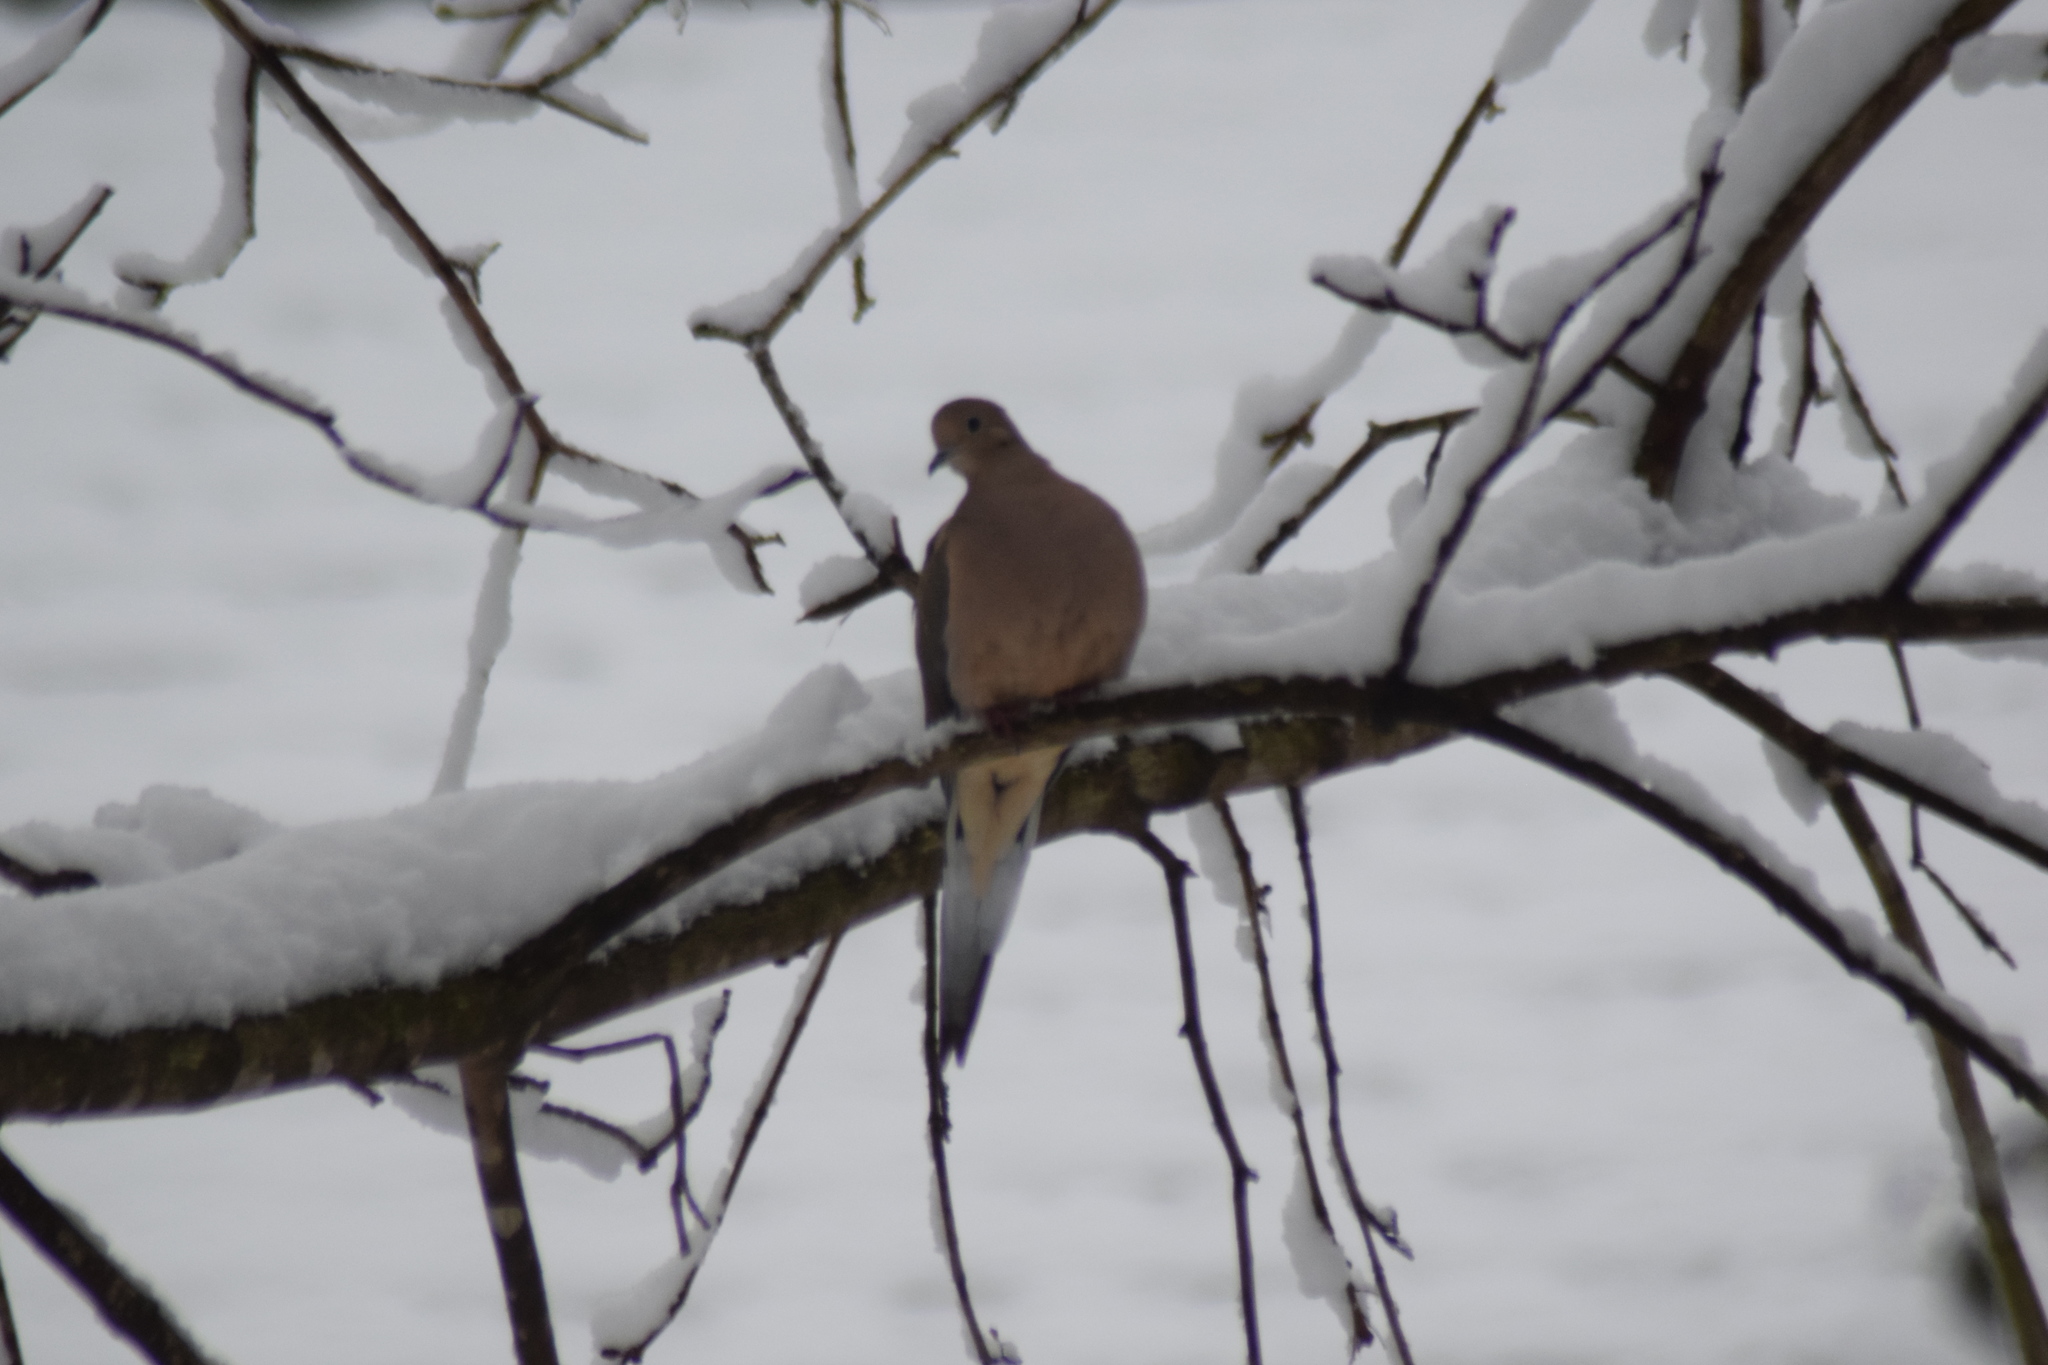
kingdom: Animalia
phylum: Chordata
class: Aves
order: Columbiformes
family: Columbidae
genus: Zenaida
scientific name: Zenaida macroura
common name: Mourning dove
